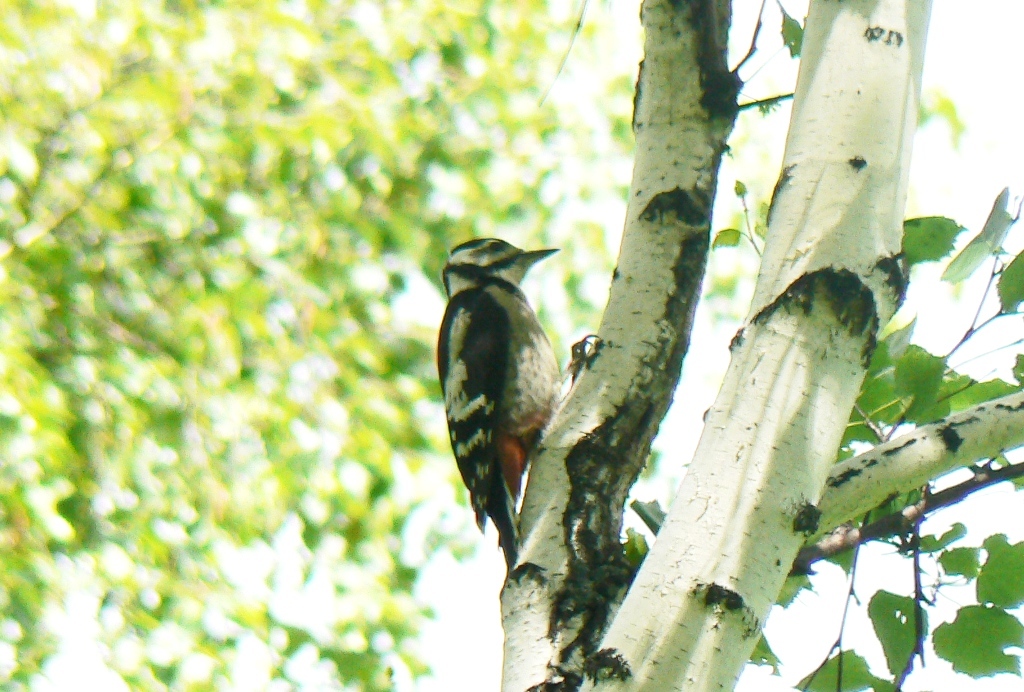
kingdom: Animalia
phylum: Chordata
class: Aves
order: Piciformes
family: Picidae
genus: Dendrocopos
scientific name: Dendrocopos major
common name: Great spotted woodpecker
